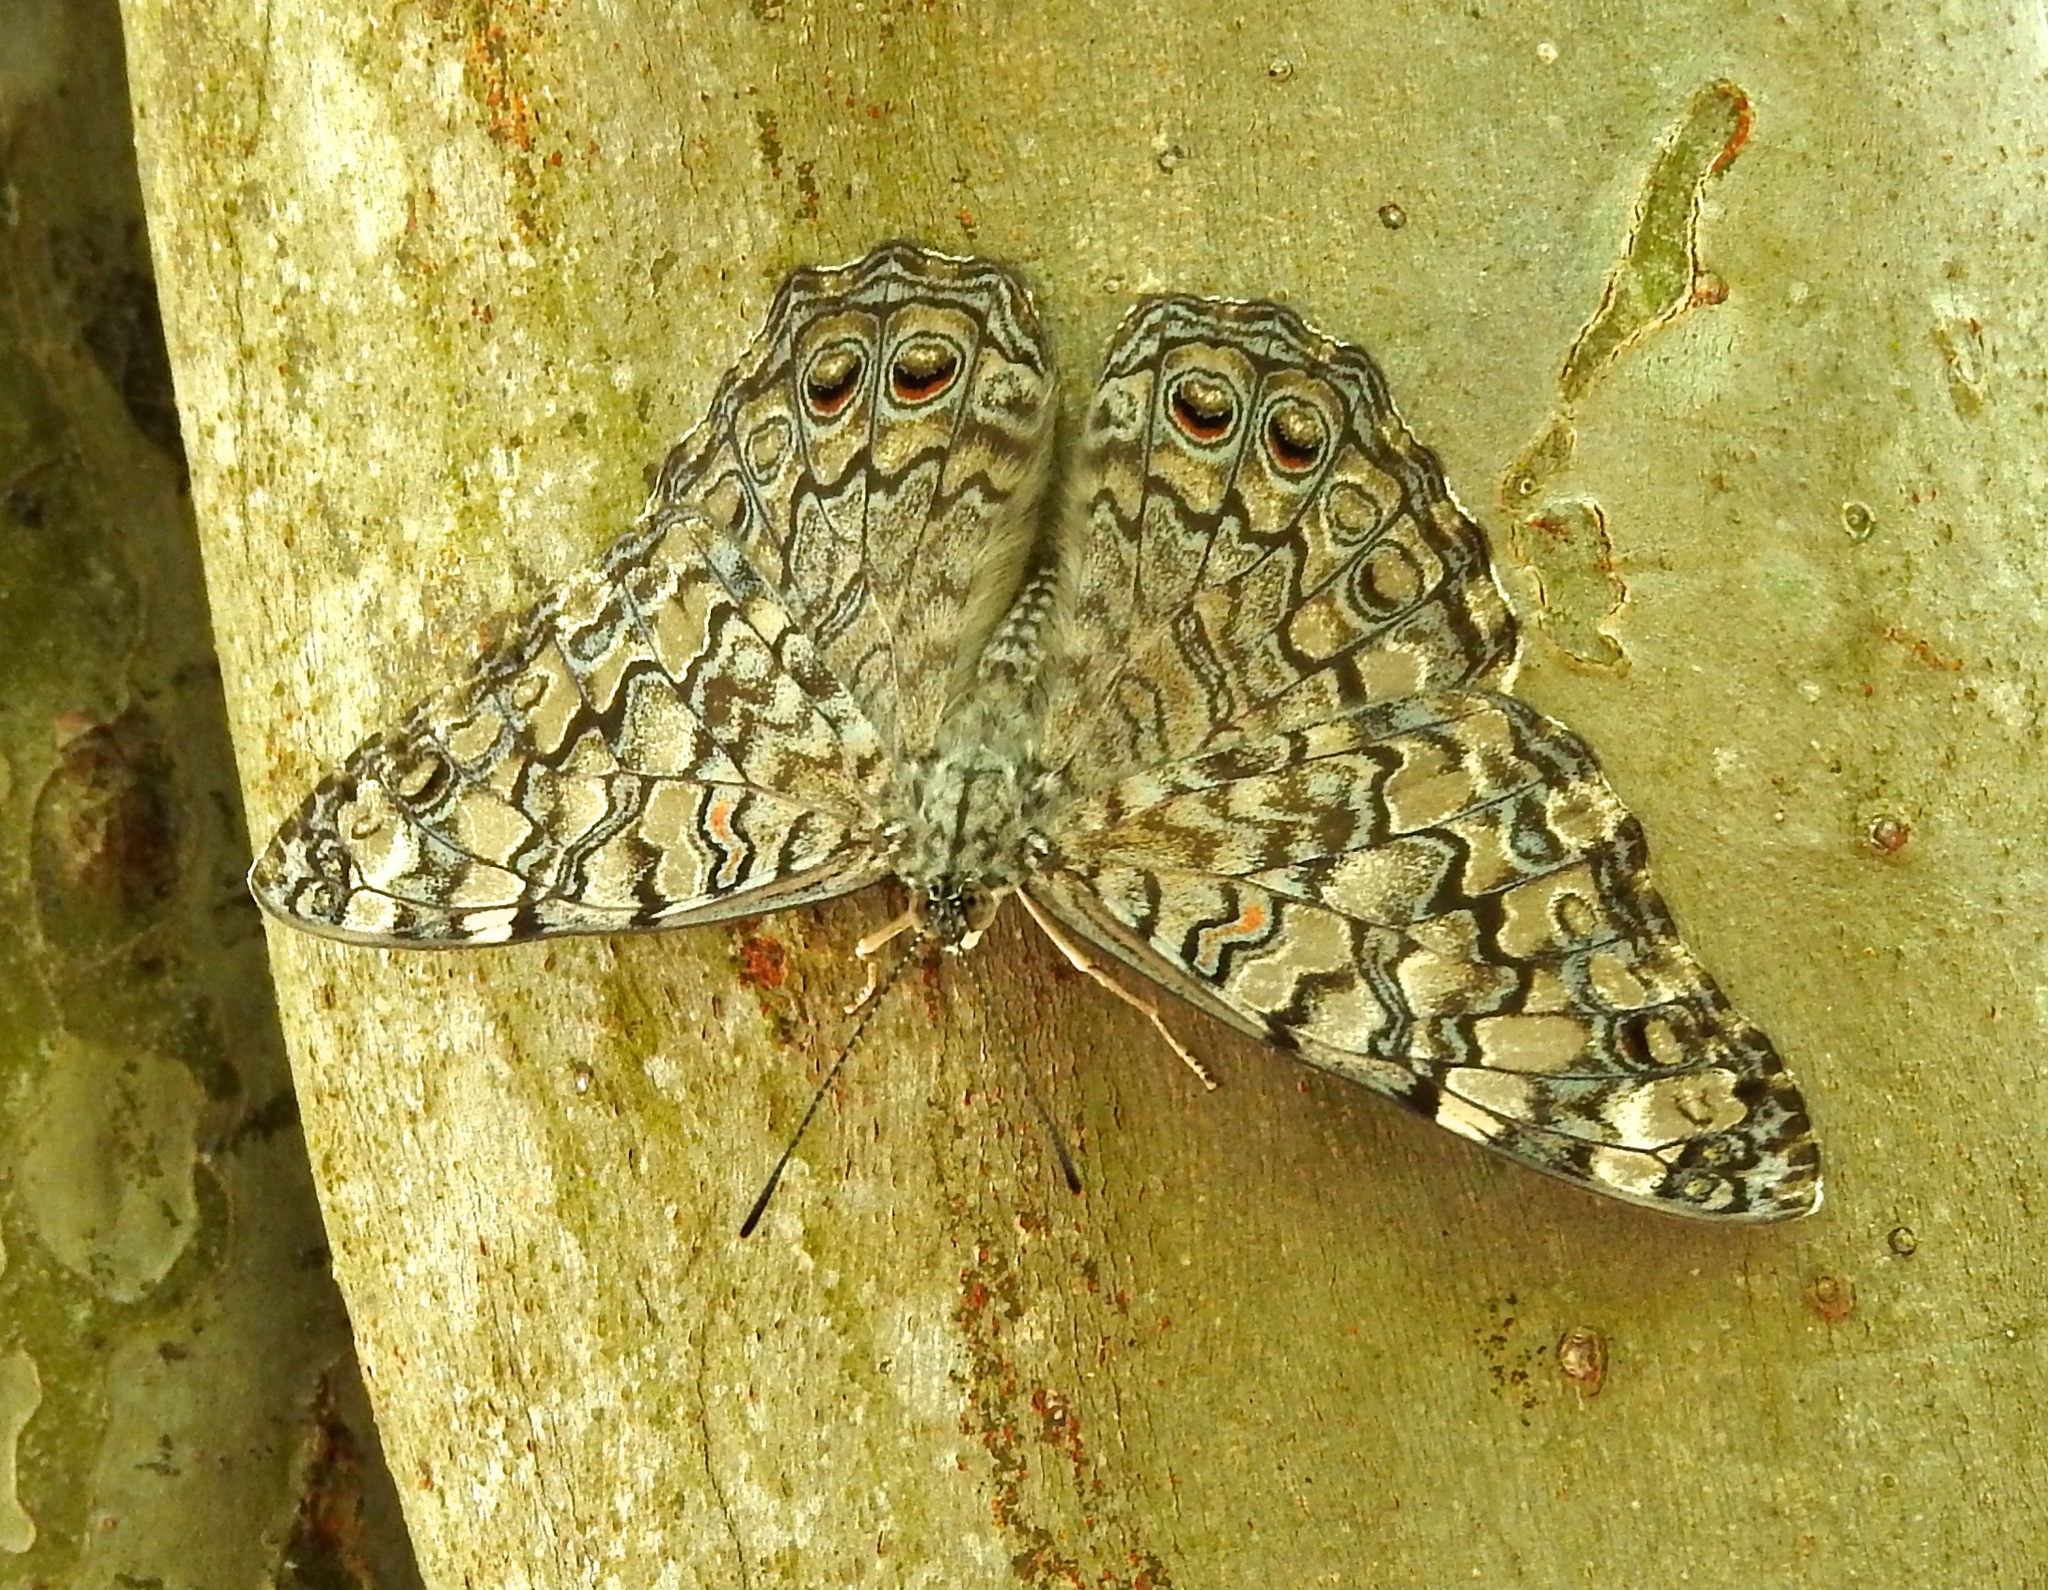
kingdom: Animalia
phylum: Arthropoda
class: Insecta
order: Lepidoptera
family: Nymphalidae
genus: Hamadryas
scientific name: Hamadryas februa
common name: Gray cracker
